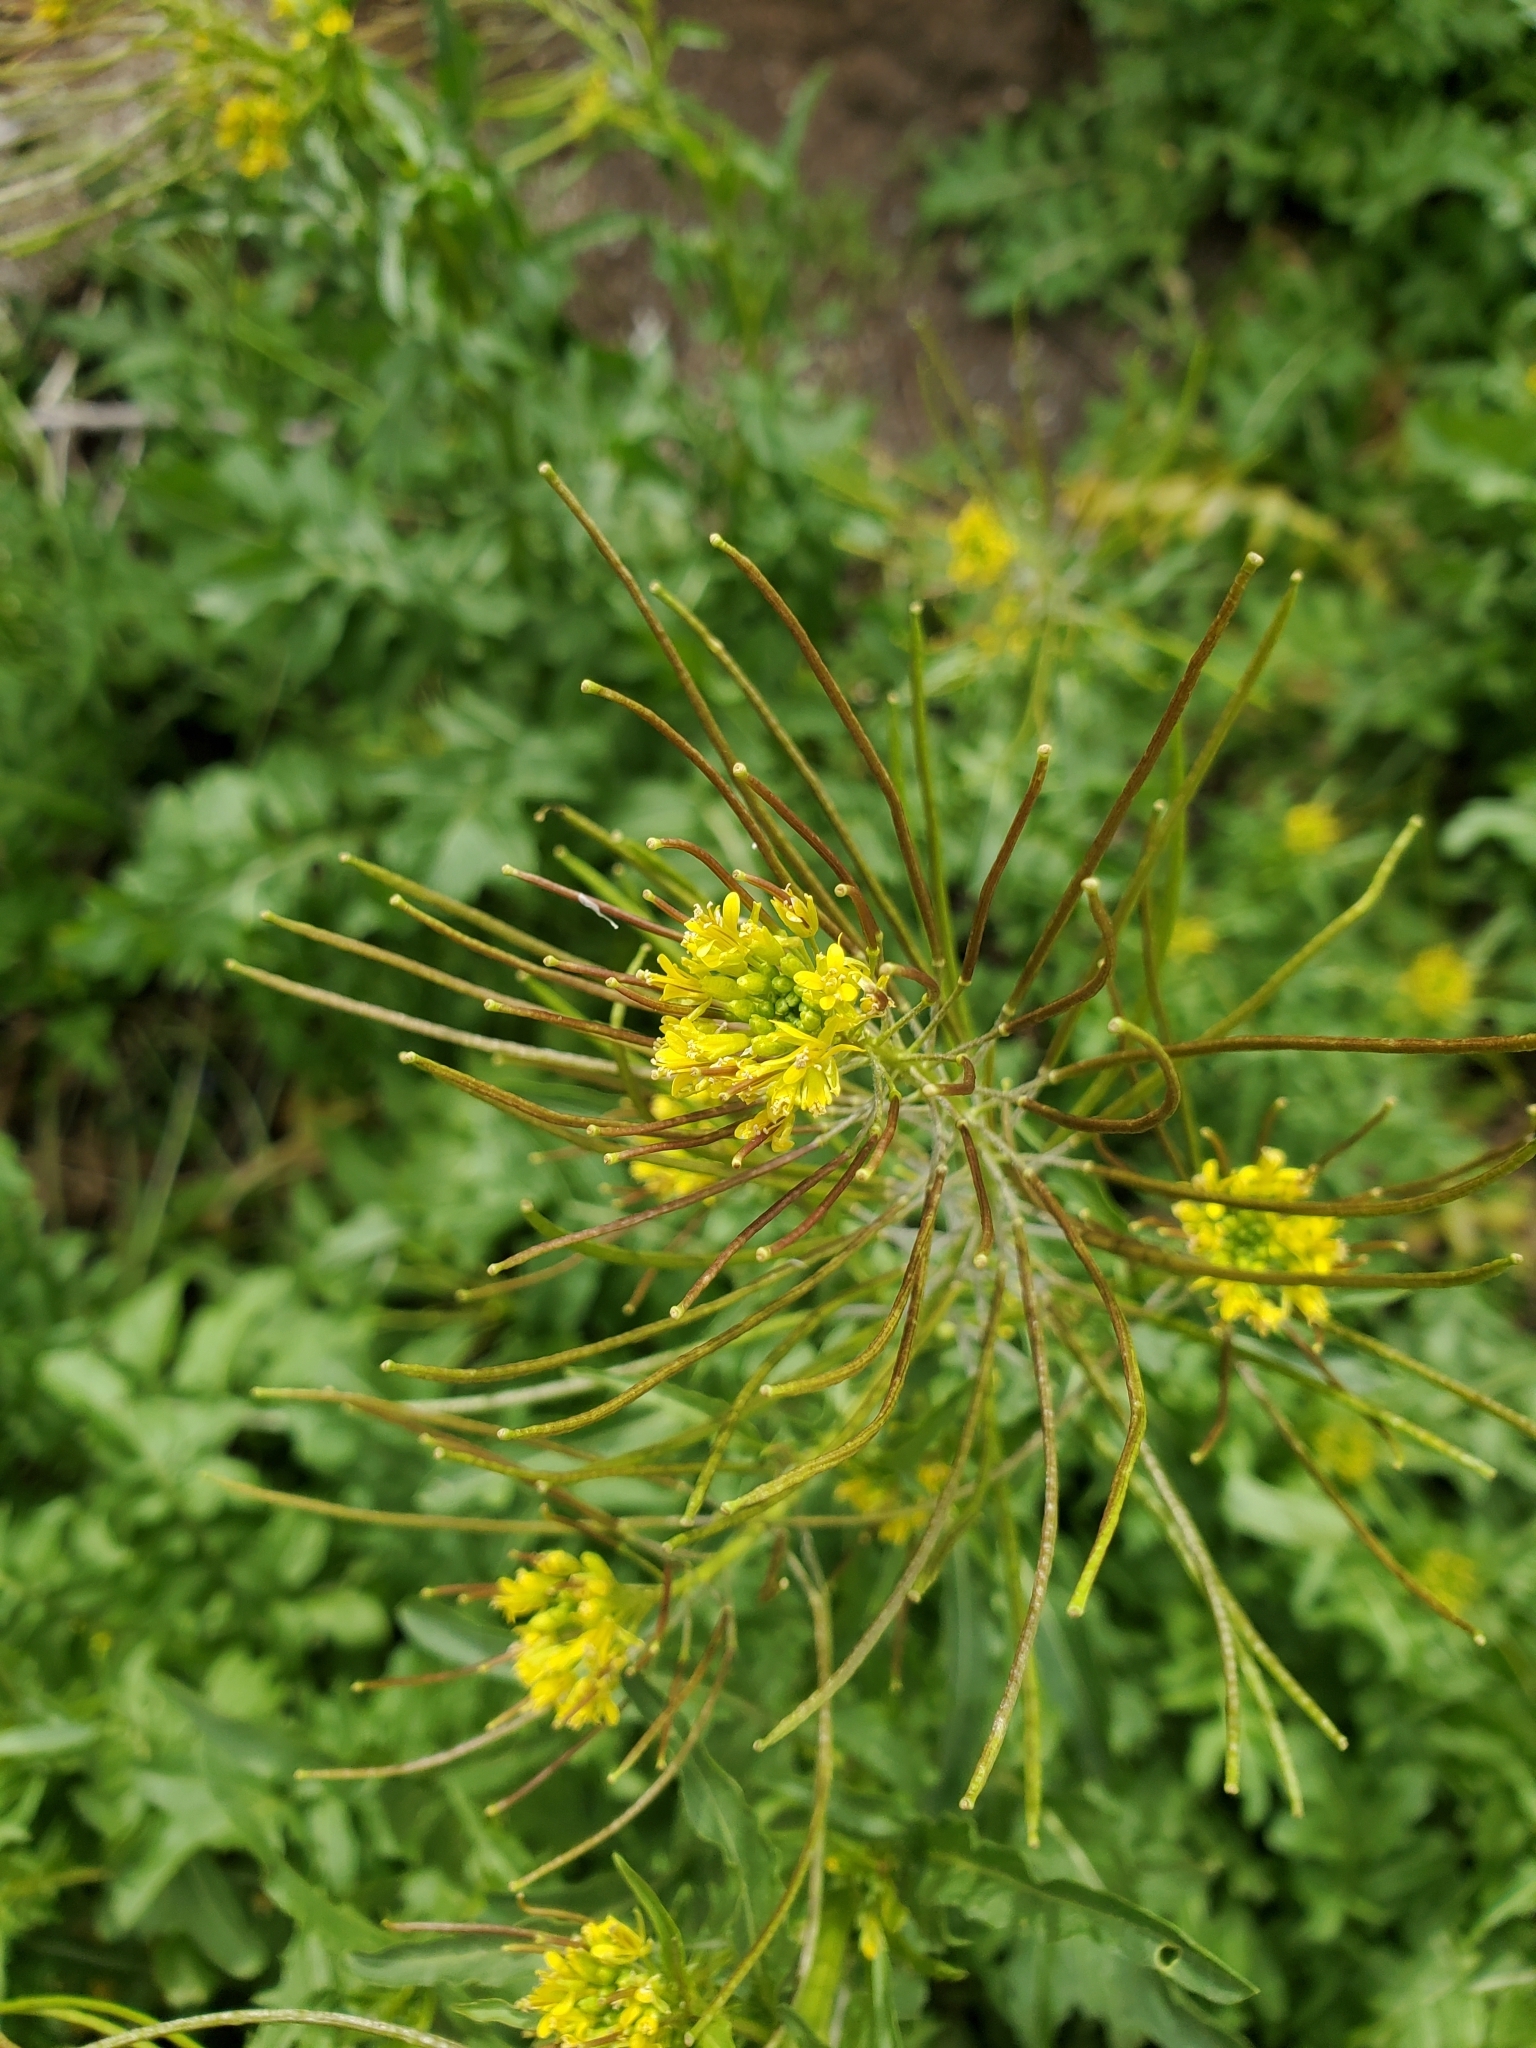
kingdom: Plantae
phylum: Tracheophyta
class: Magnoliopsida
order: Brassicales
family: Brassicaceae
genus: Sisymbrium
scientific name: Sisymbrium irio
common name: London rocket
